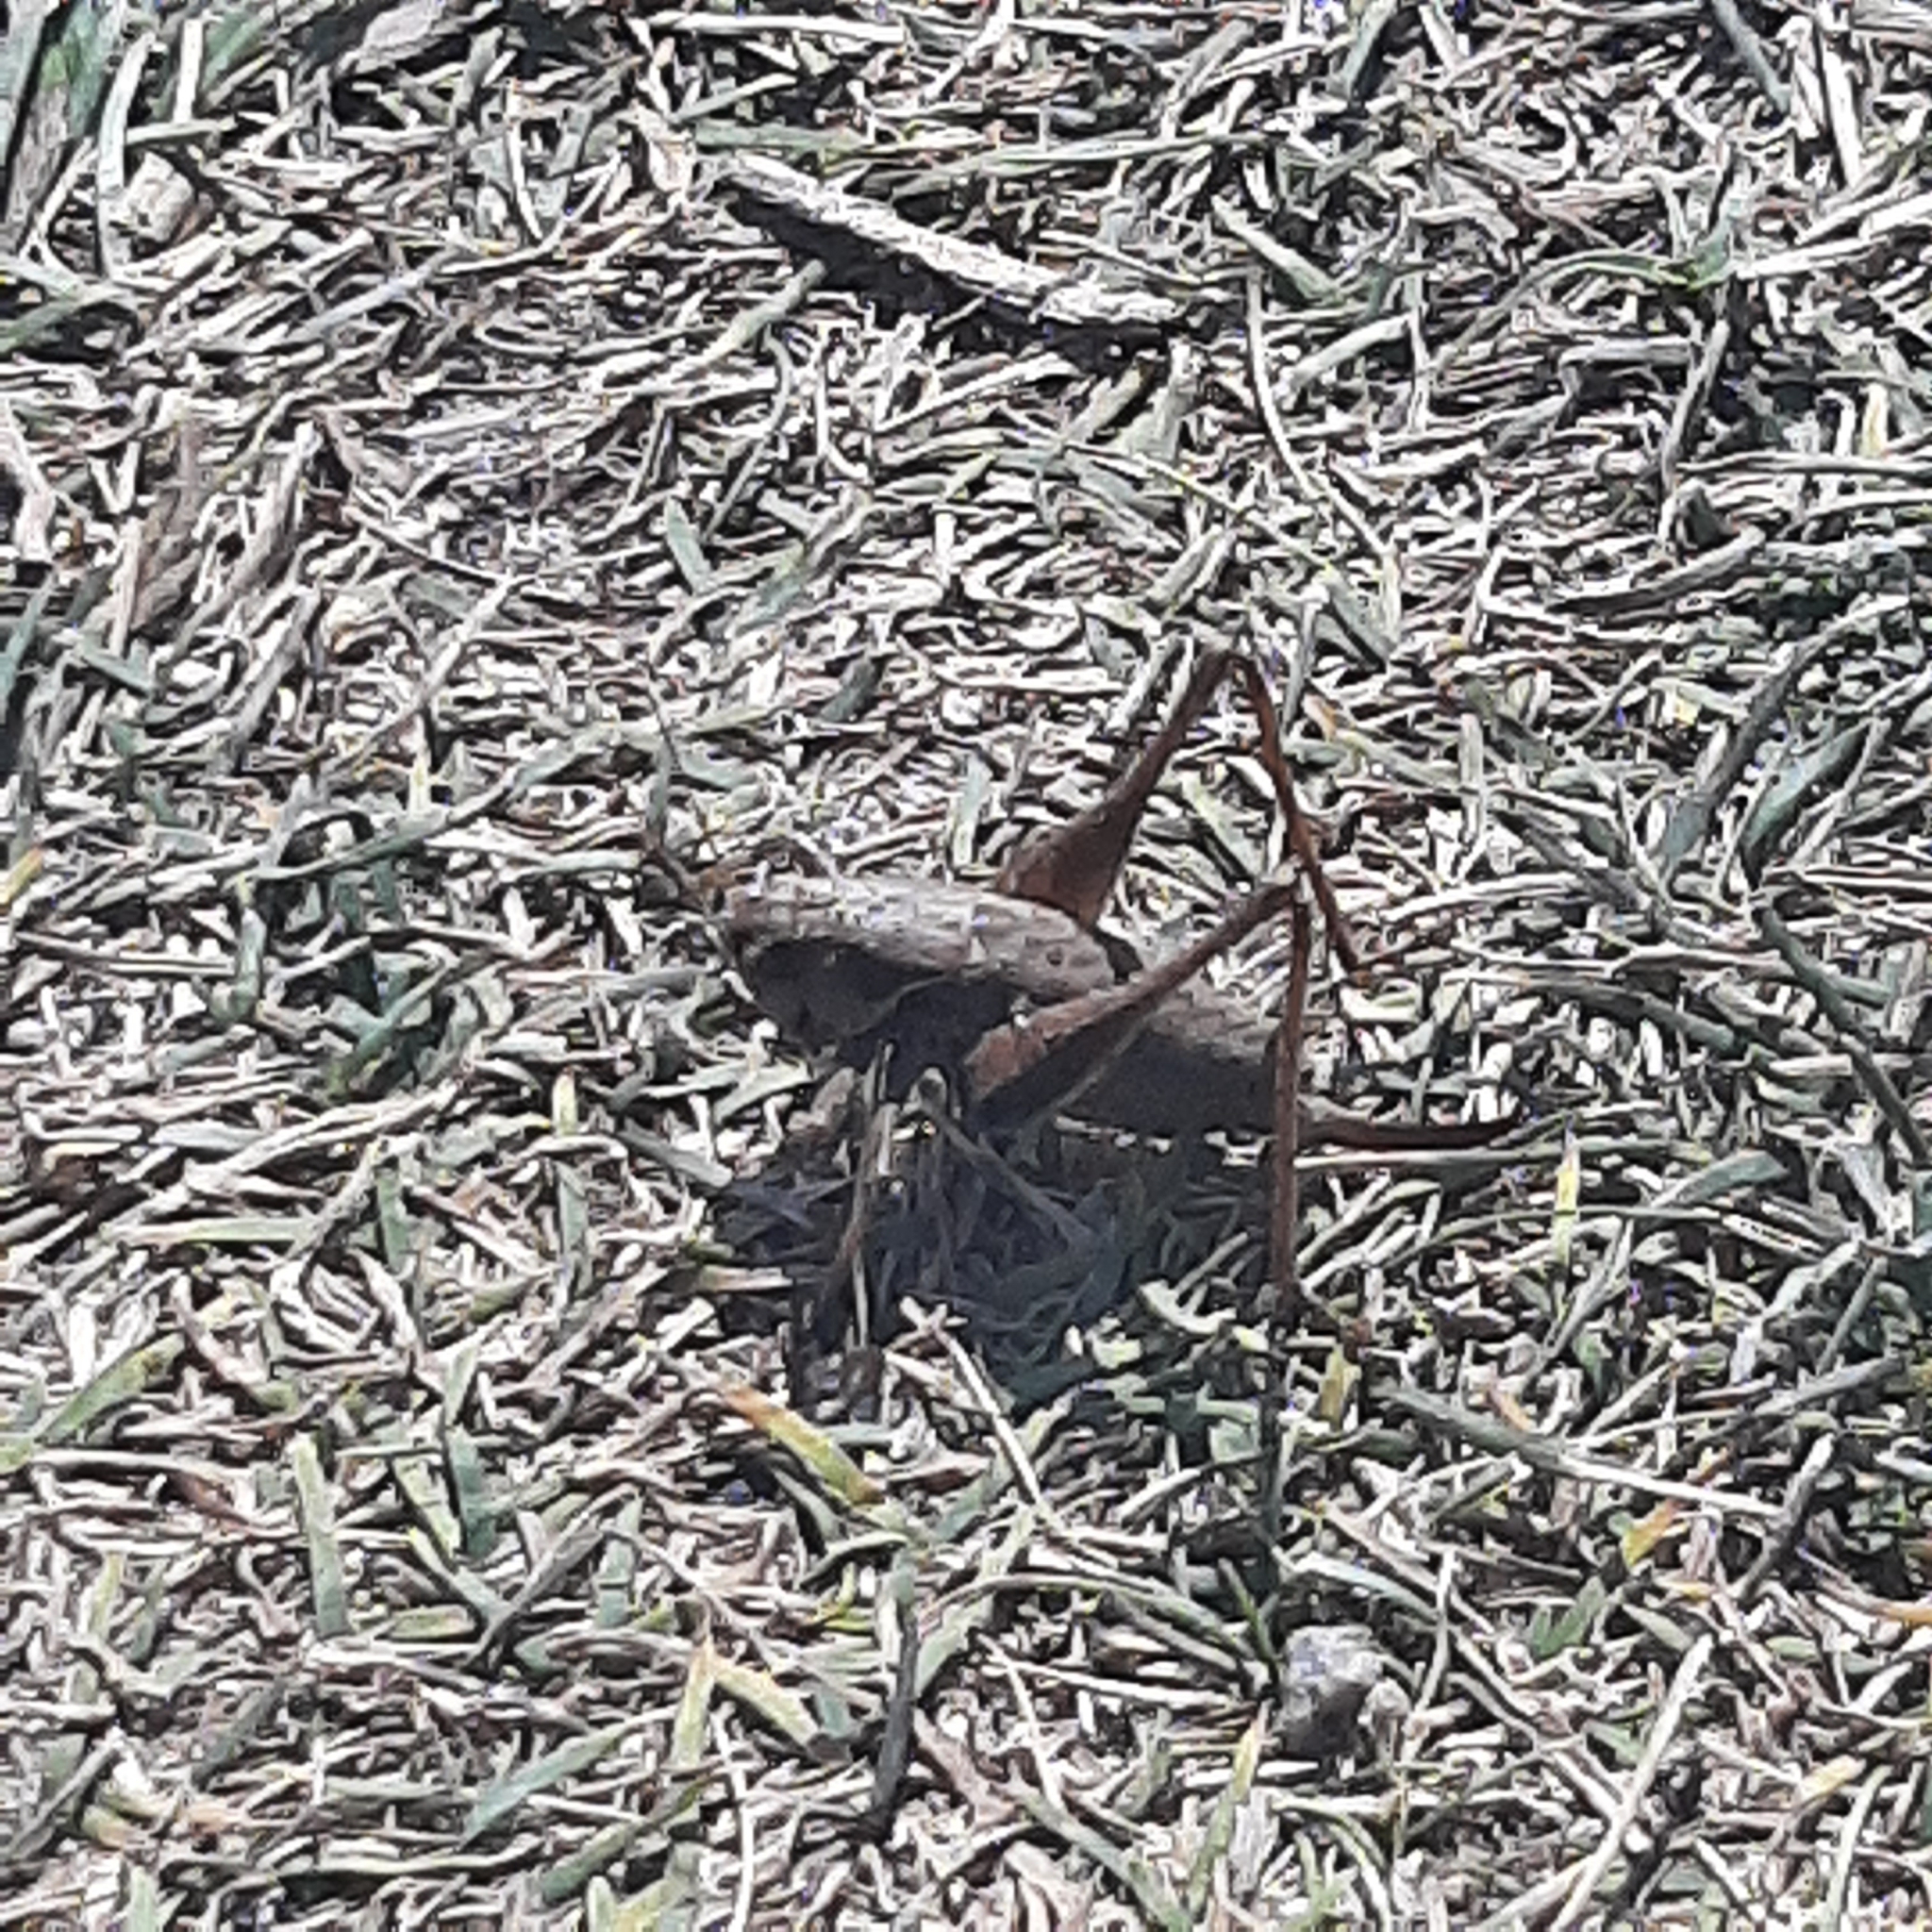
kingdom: Animalia
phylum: Arthropoda
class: Insecta
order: Orthoptera
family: Tettigoniidae
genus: Pholidoptera
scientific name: Pholidoptera griseoaptera
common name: Dark bush-cricket
